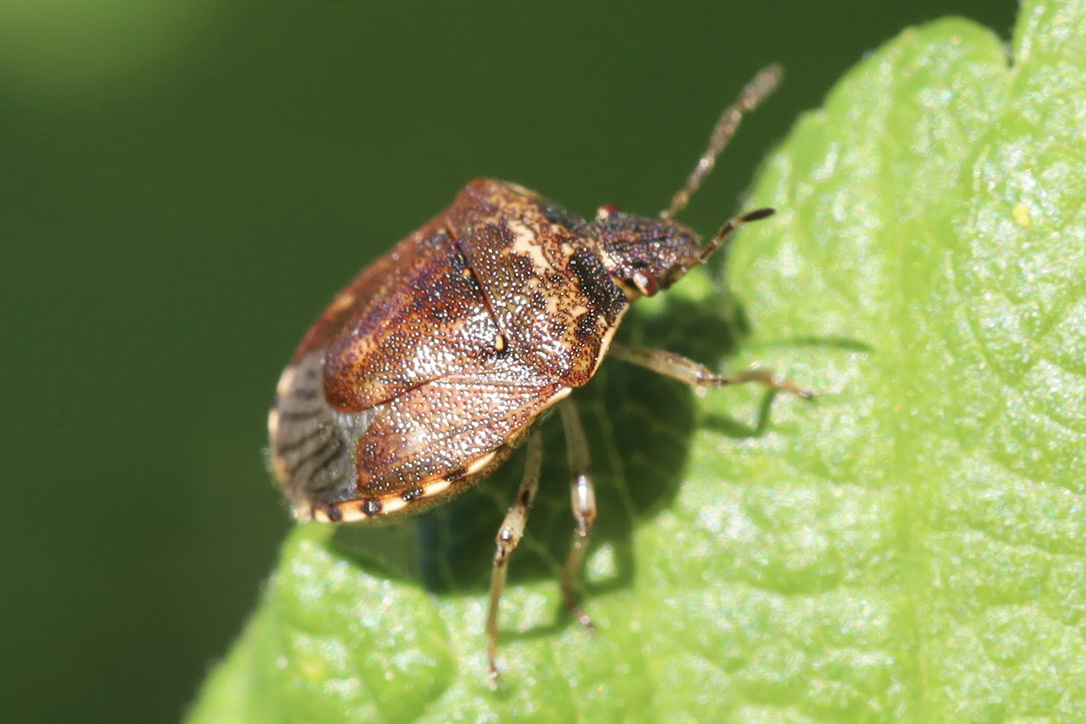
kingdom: Animalia
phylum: Arthropoda
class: Insecta
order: Hemiptera
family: Pentatomidae
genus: Cosmopepla
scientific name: Cosmopepla intergressus
